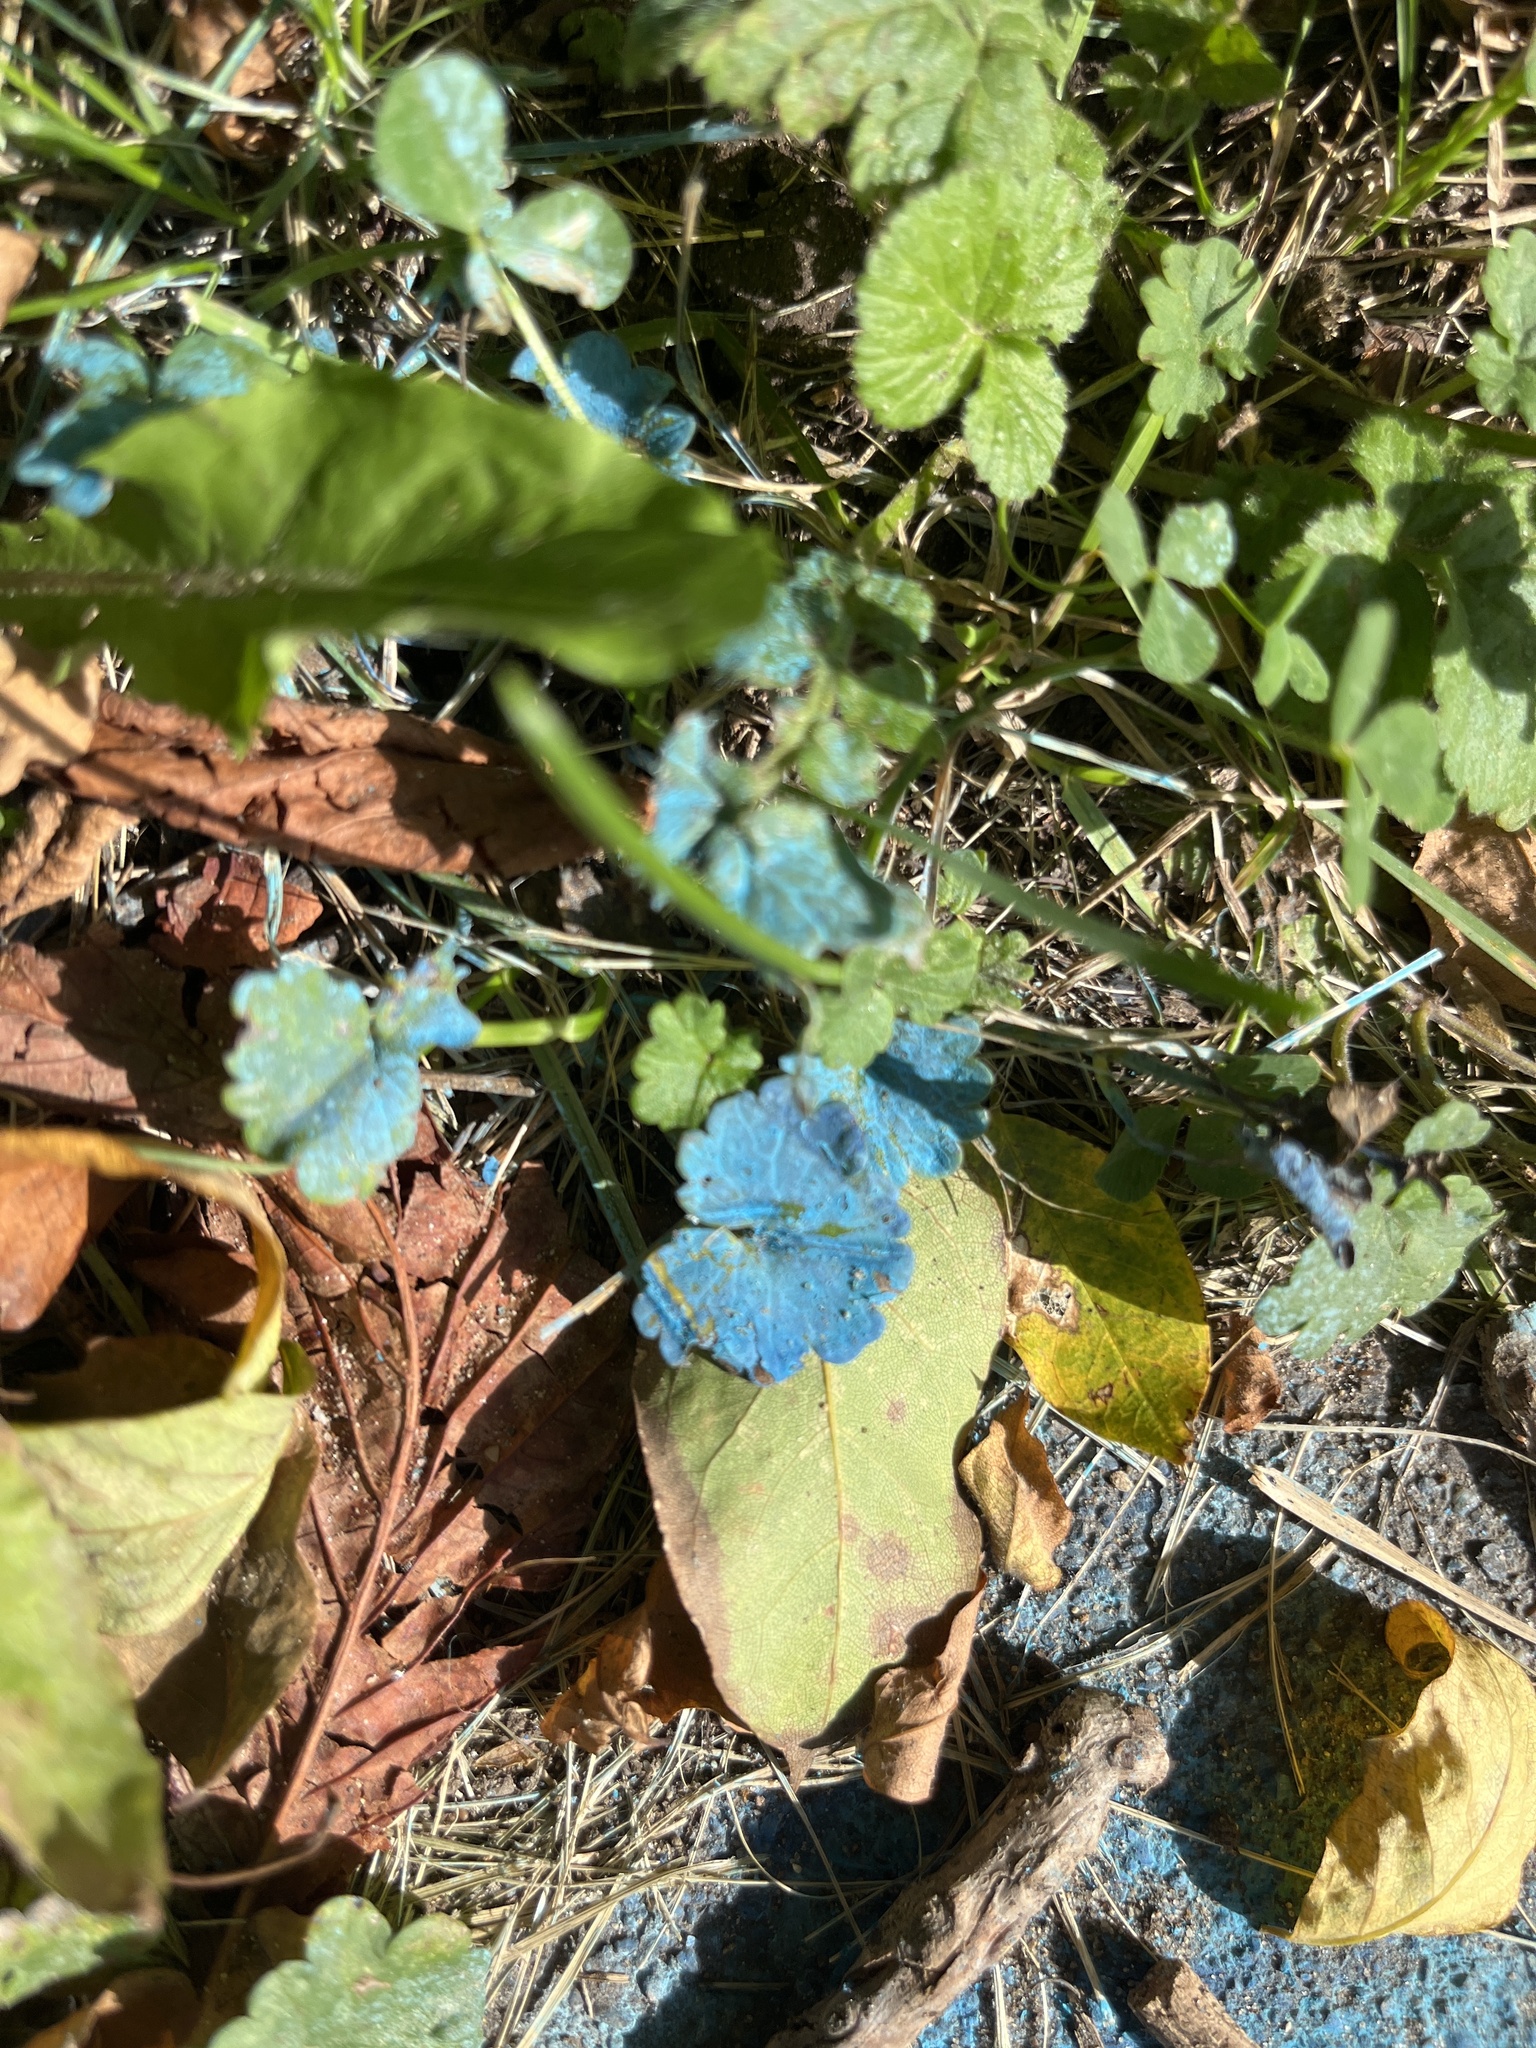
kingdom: Plantae
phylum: Tracheophyta
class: Magnoliopsida
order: Lamiales
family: Lamiaceae
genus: Glechoma
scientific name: Glechoma hederacea
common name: Ground ivy
